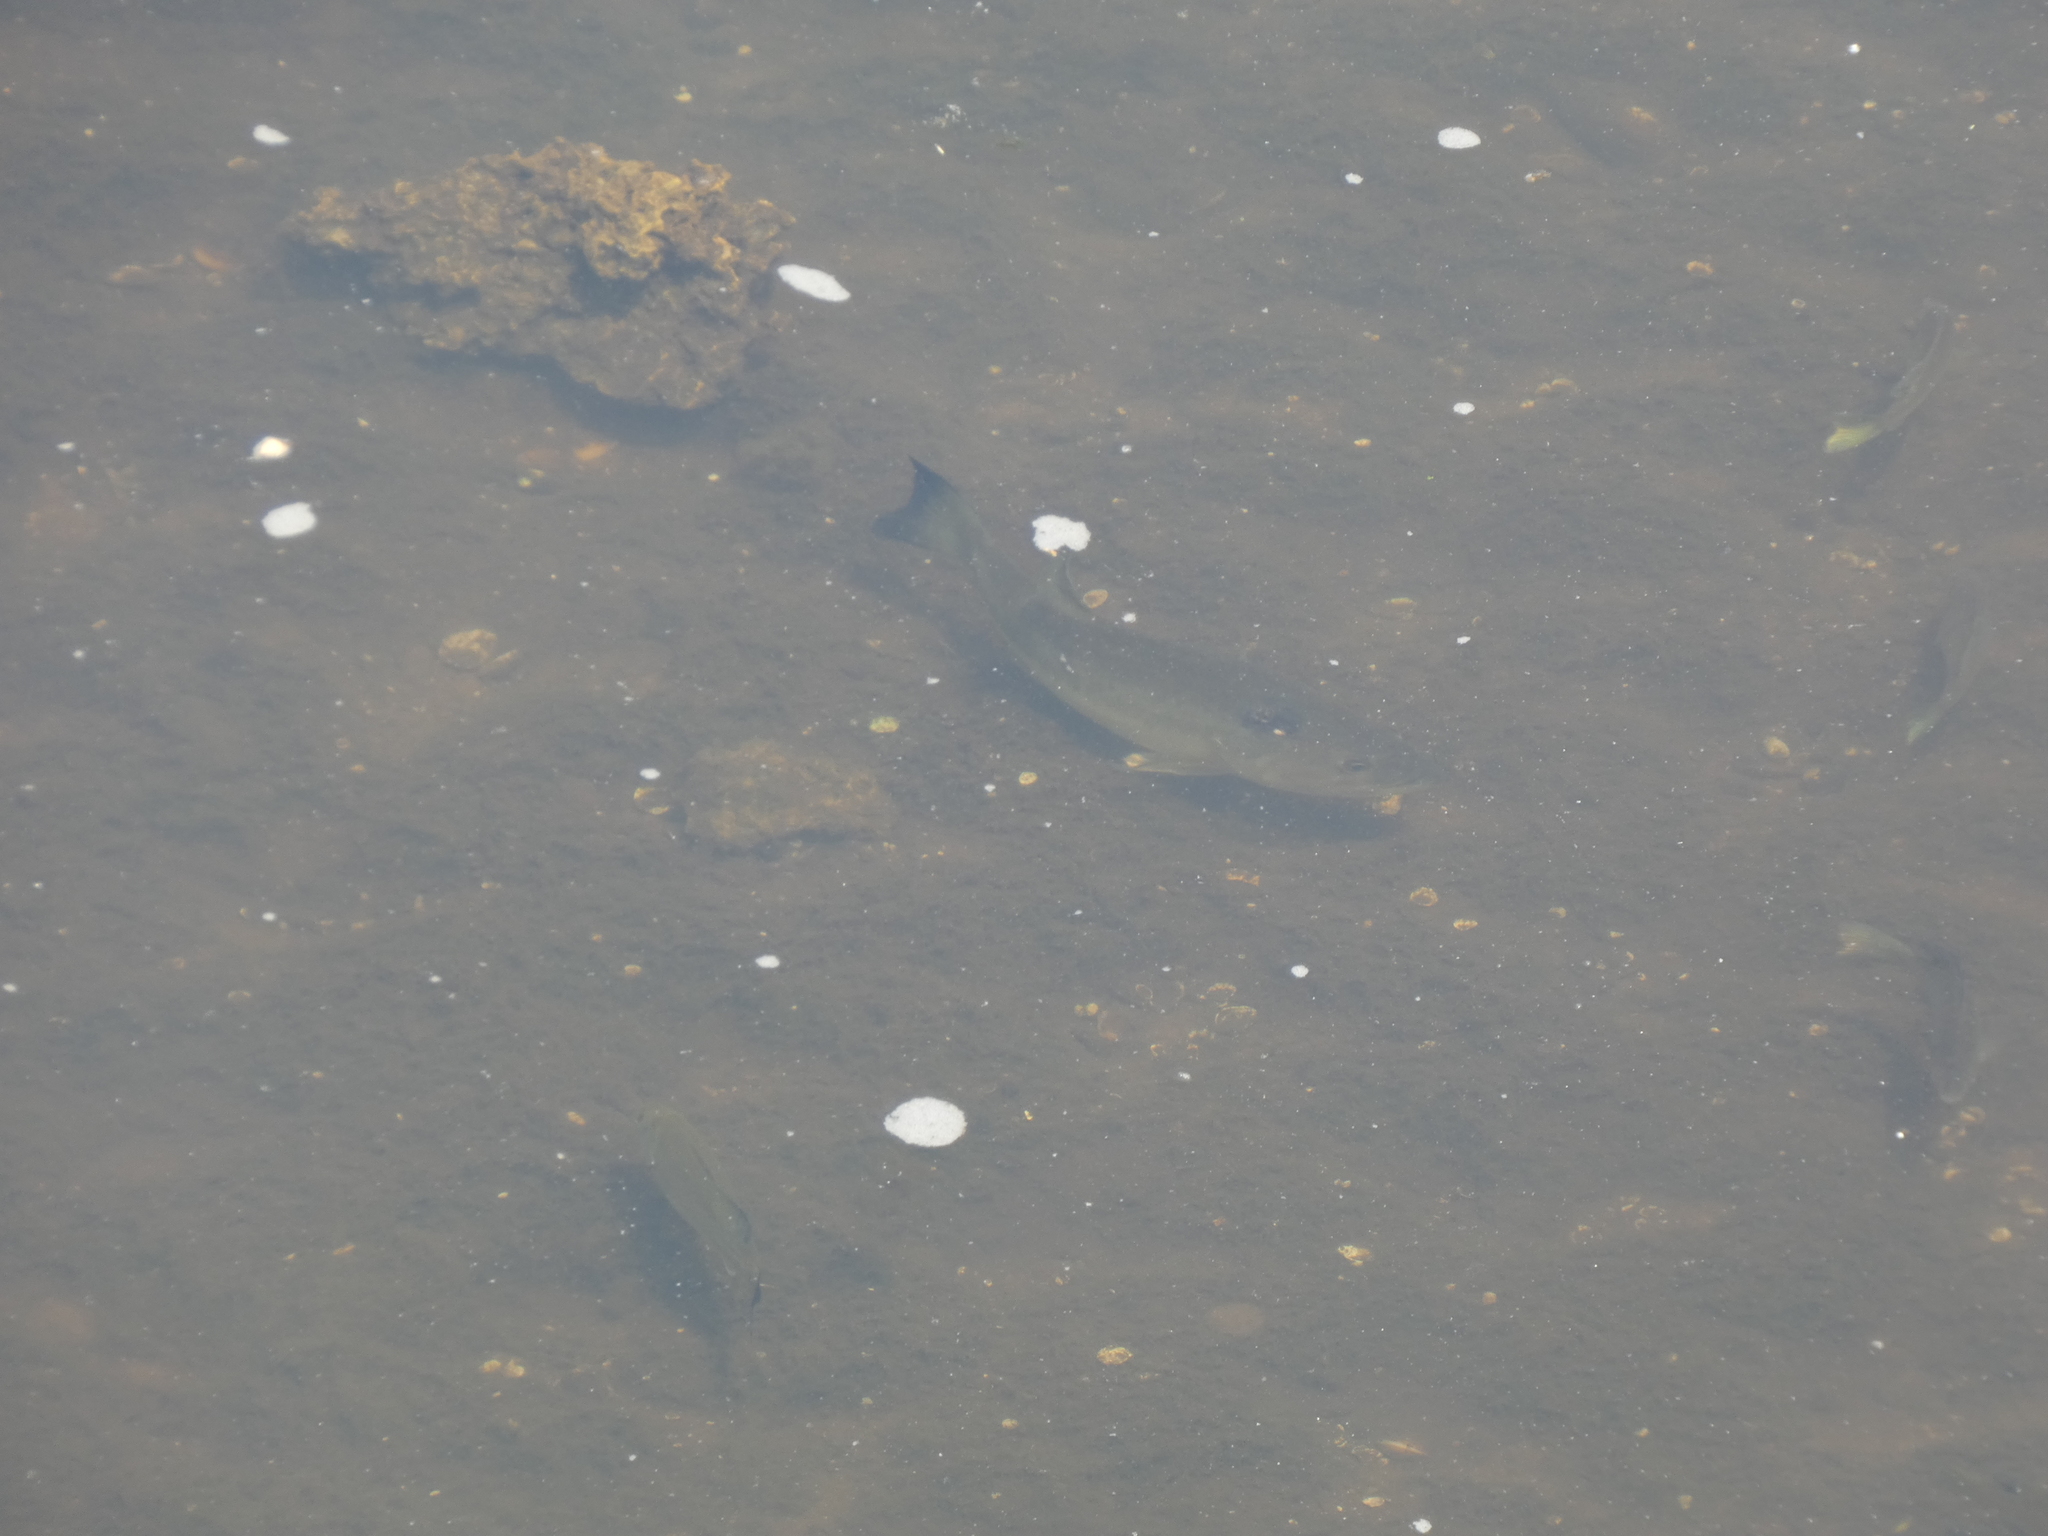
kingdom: Animalia
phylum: Chordata
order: Perciformes
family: Centrarchidae
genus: Micropterus
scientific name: Micropterus salmoides
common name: Largemouth bass
